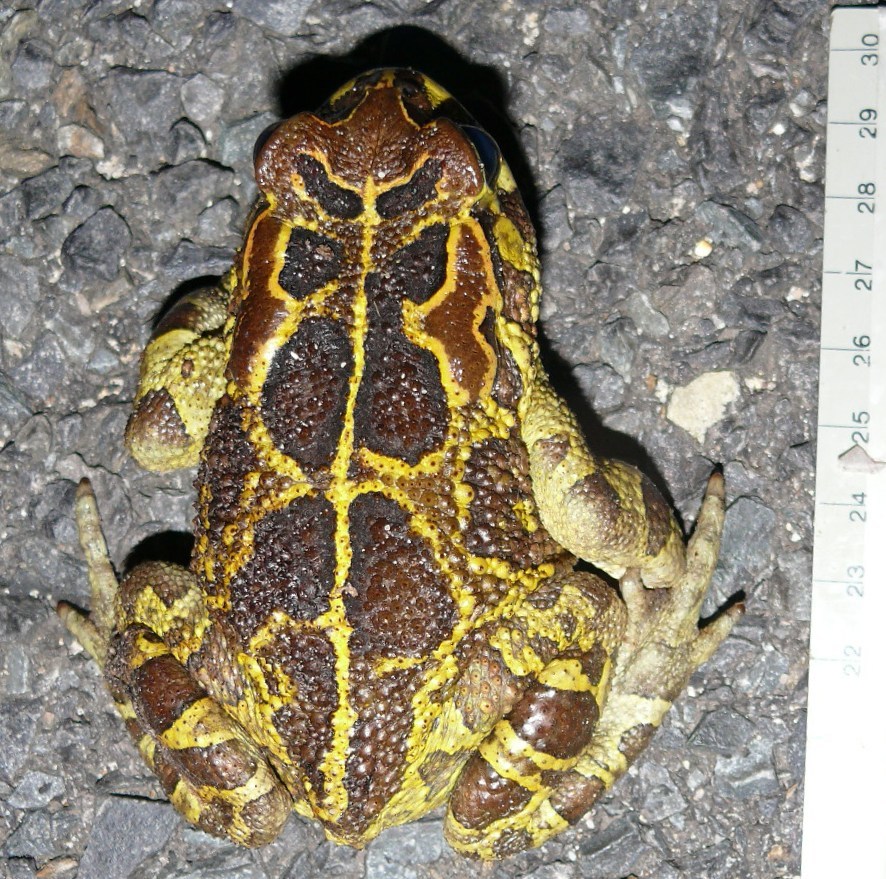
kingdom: Animalia
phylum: Chordata
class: Amphibia
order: Anura
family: Bufonidae
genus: Sclerophrys
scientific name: Sclerophrys pantherina
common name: Panther toad
